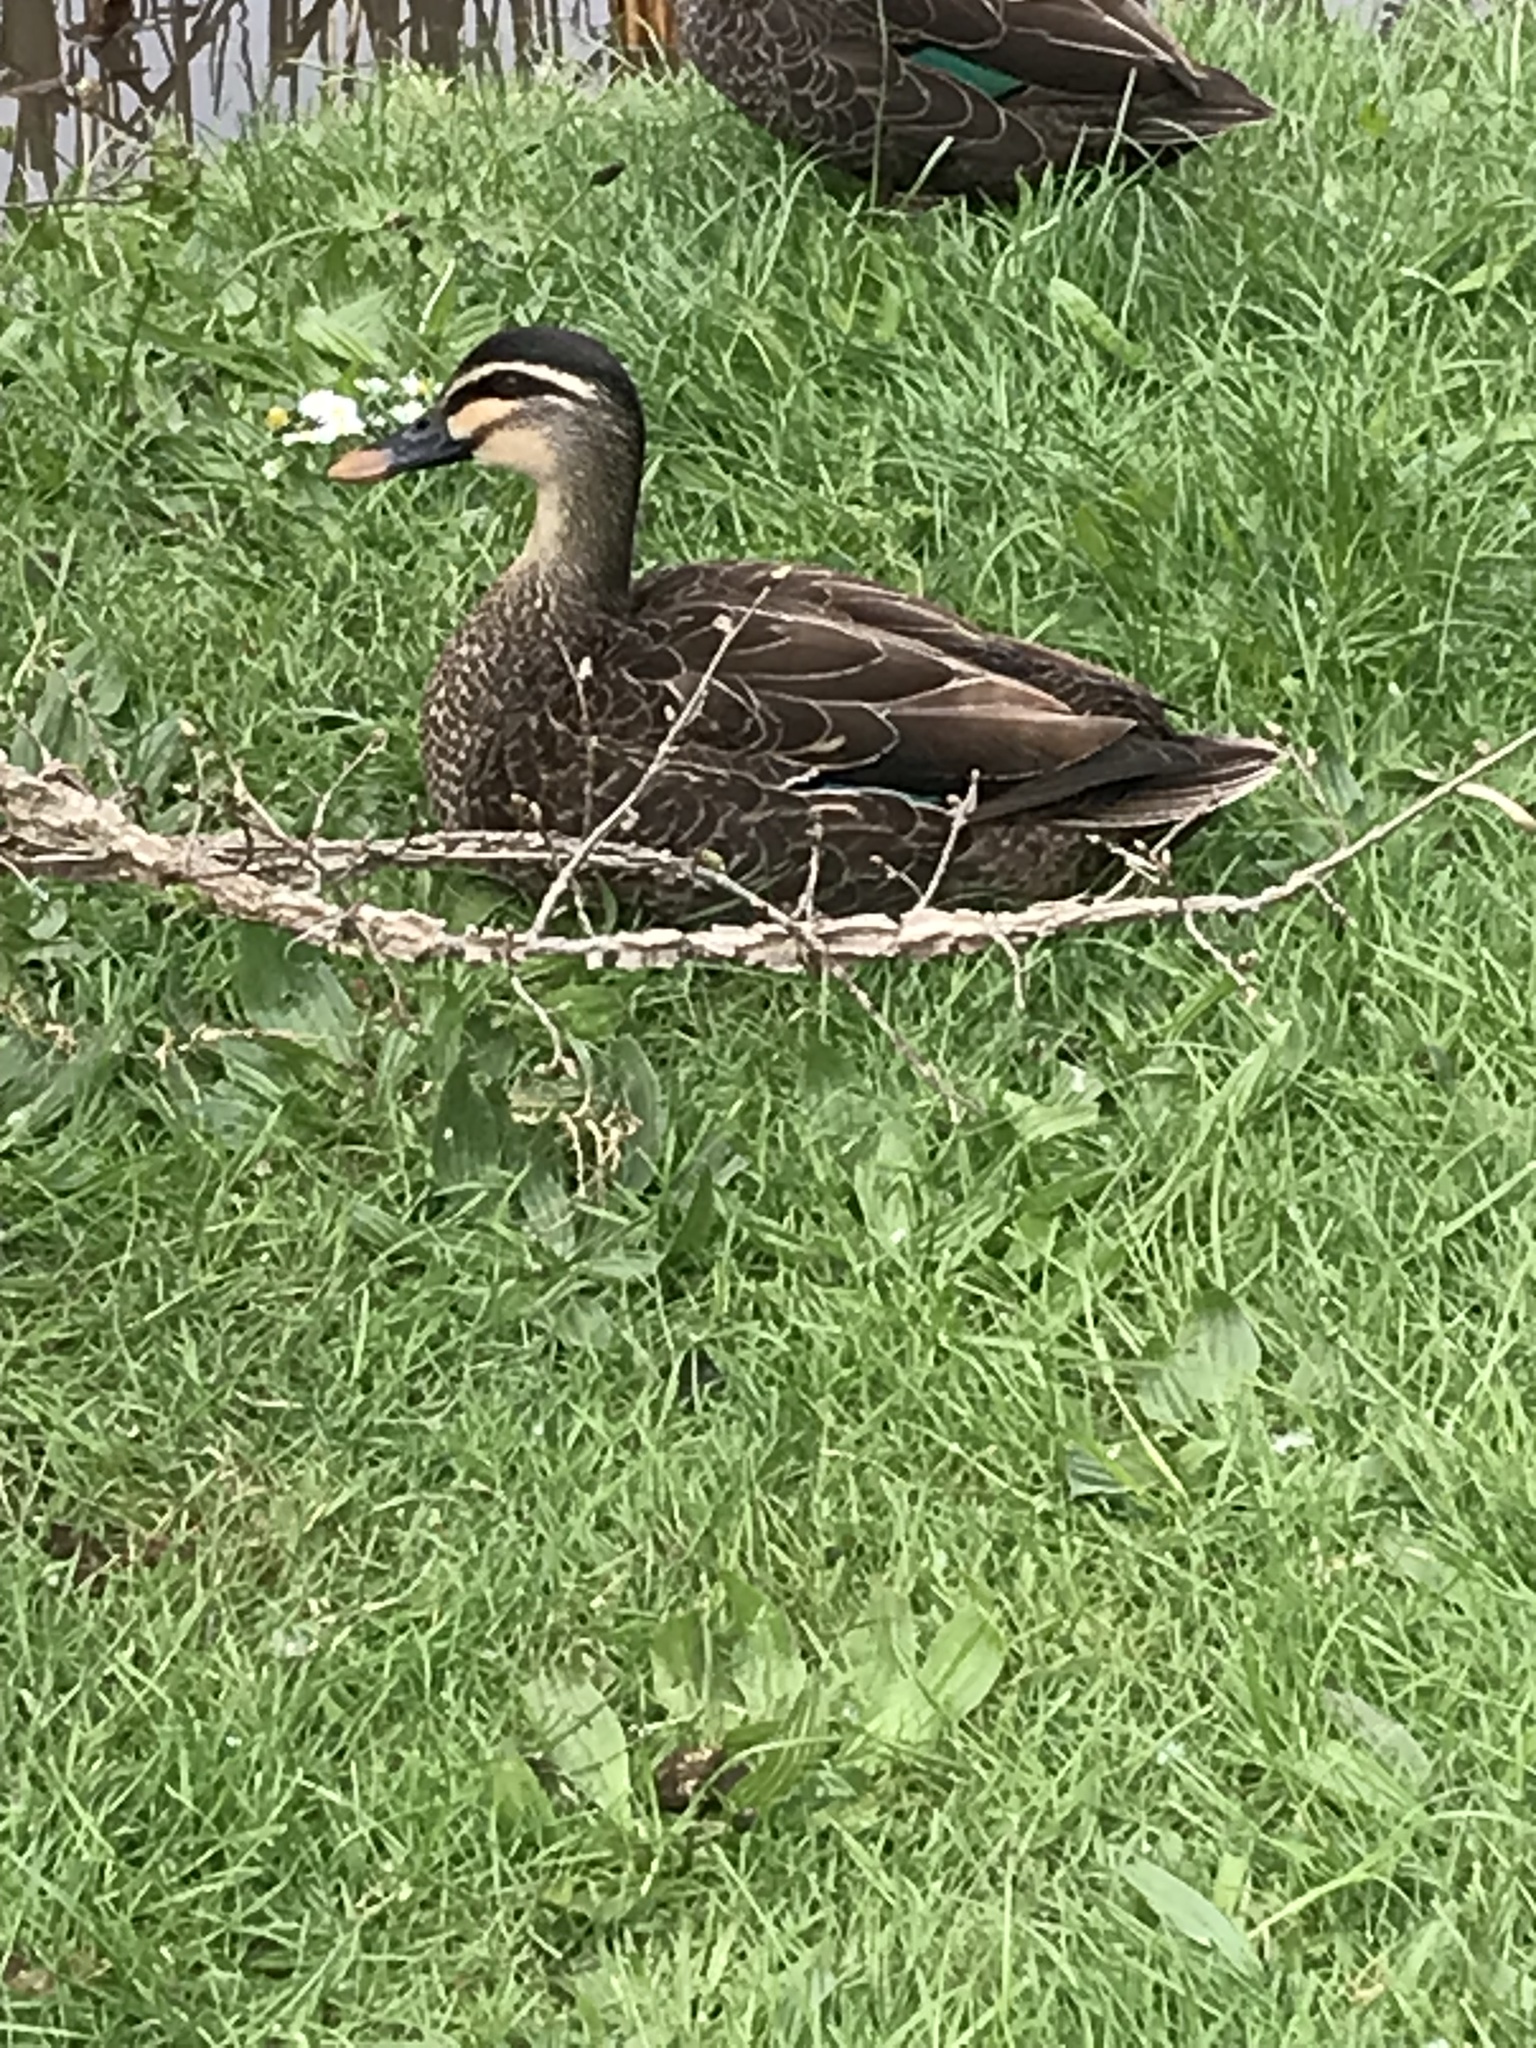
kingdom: Animalia
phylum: Chordata
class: Aves
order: Anseriformes
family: Anatidae
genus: Anas
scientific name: Anas
